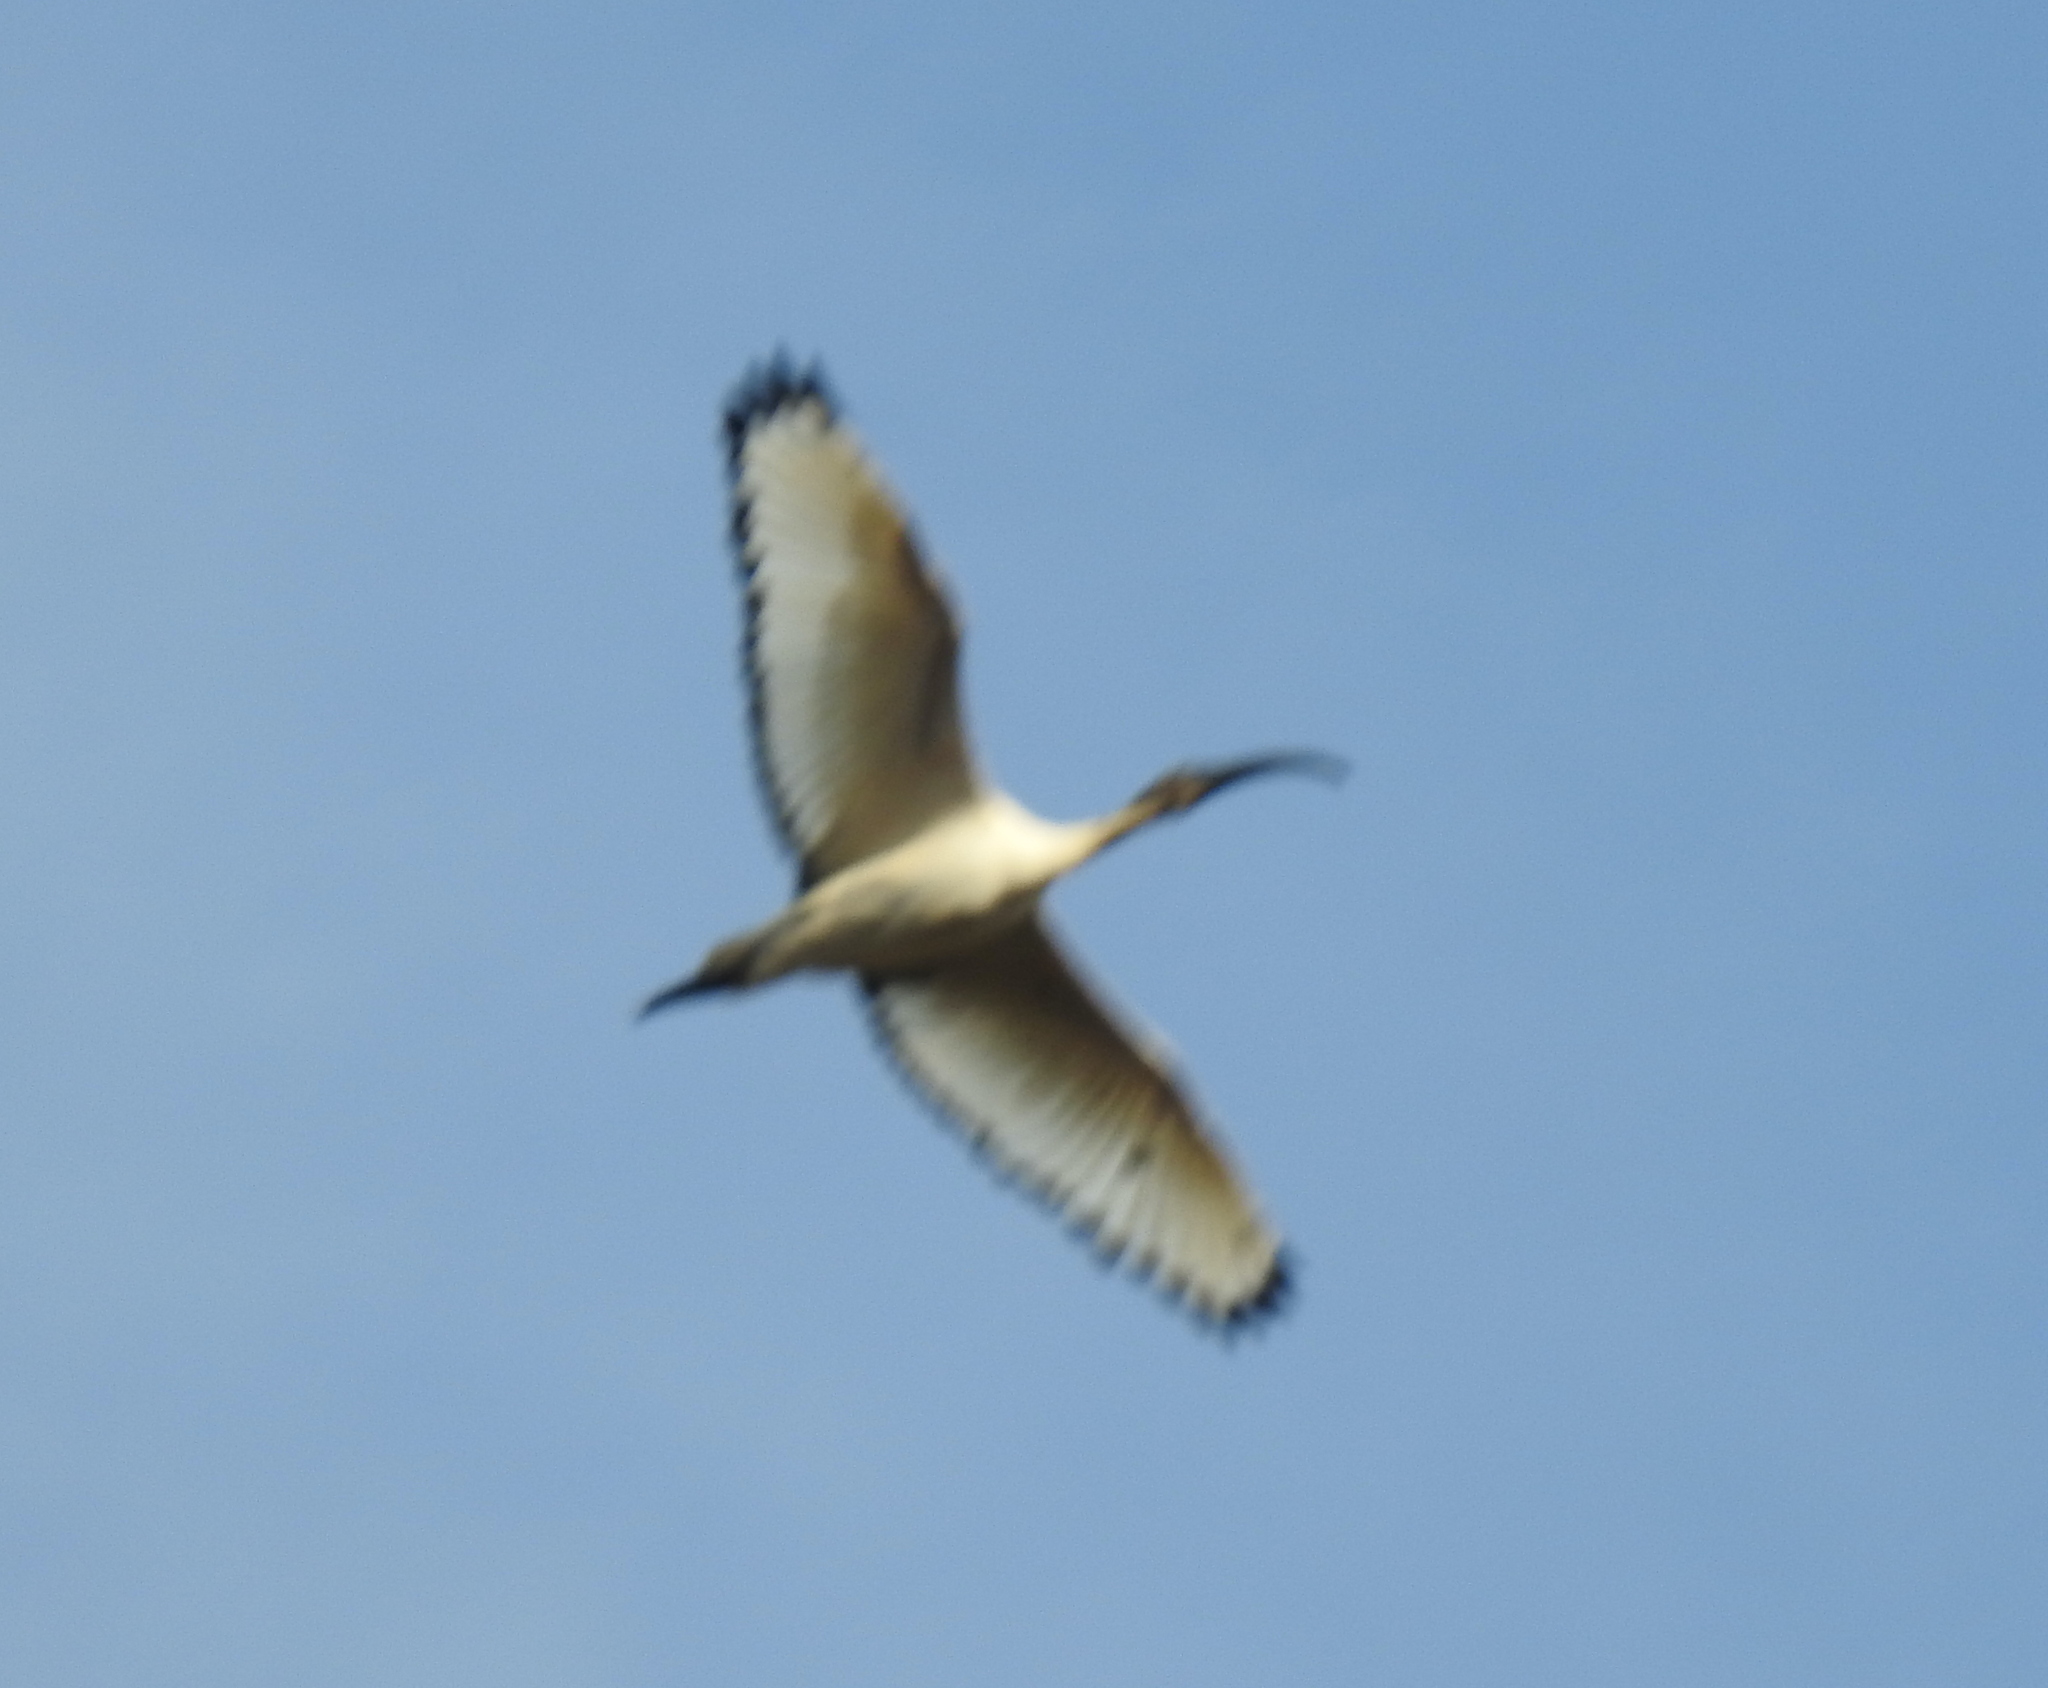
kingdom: Animalia
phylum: Chordata
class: Aves
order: Pelecaniformes
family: Threskiornithidae
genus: Threskiornis
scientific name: Threskiornis aethiopicus
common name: Sacred ibis
